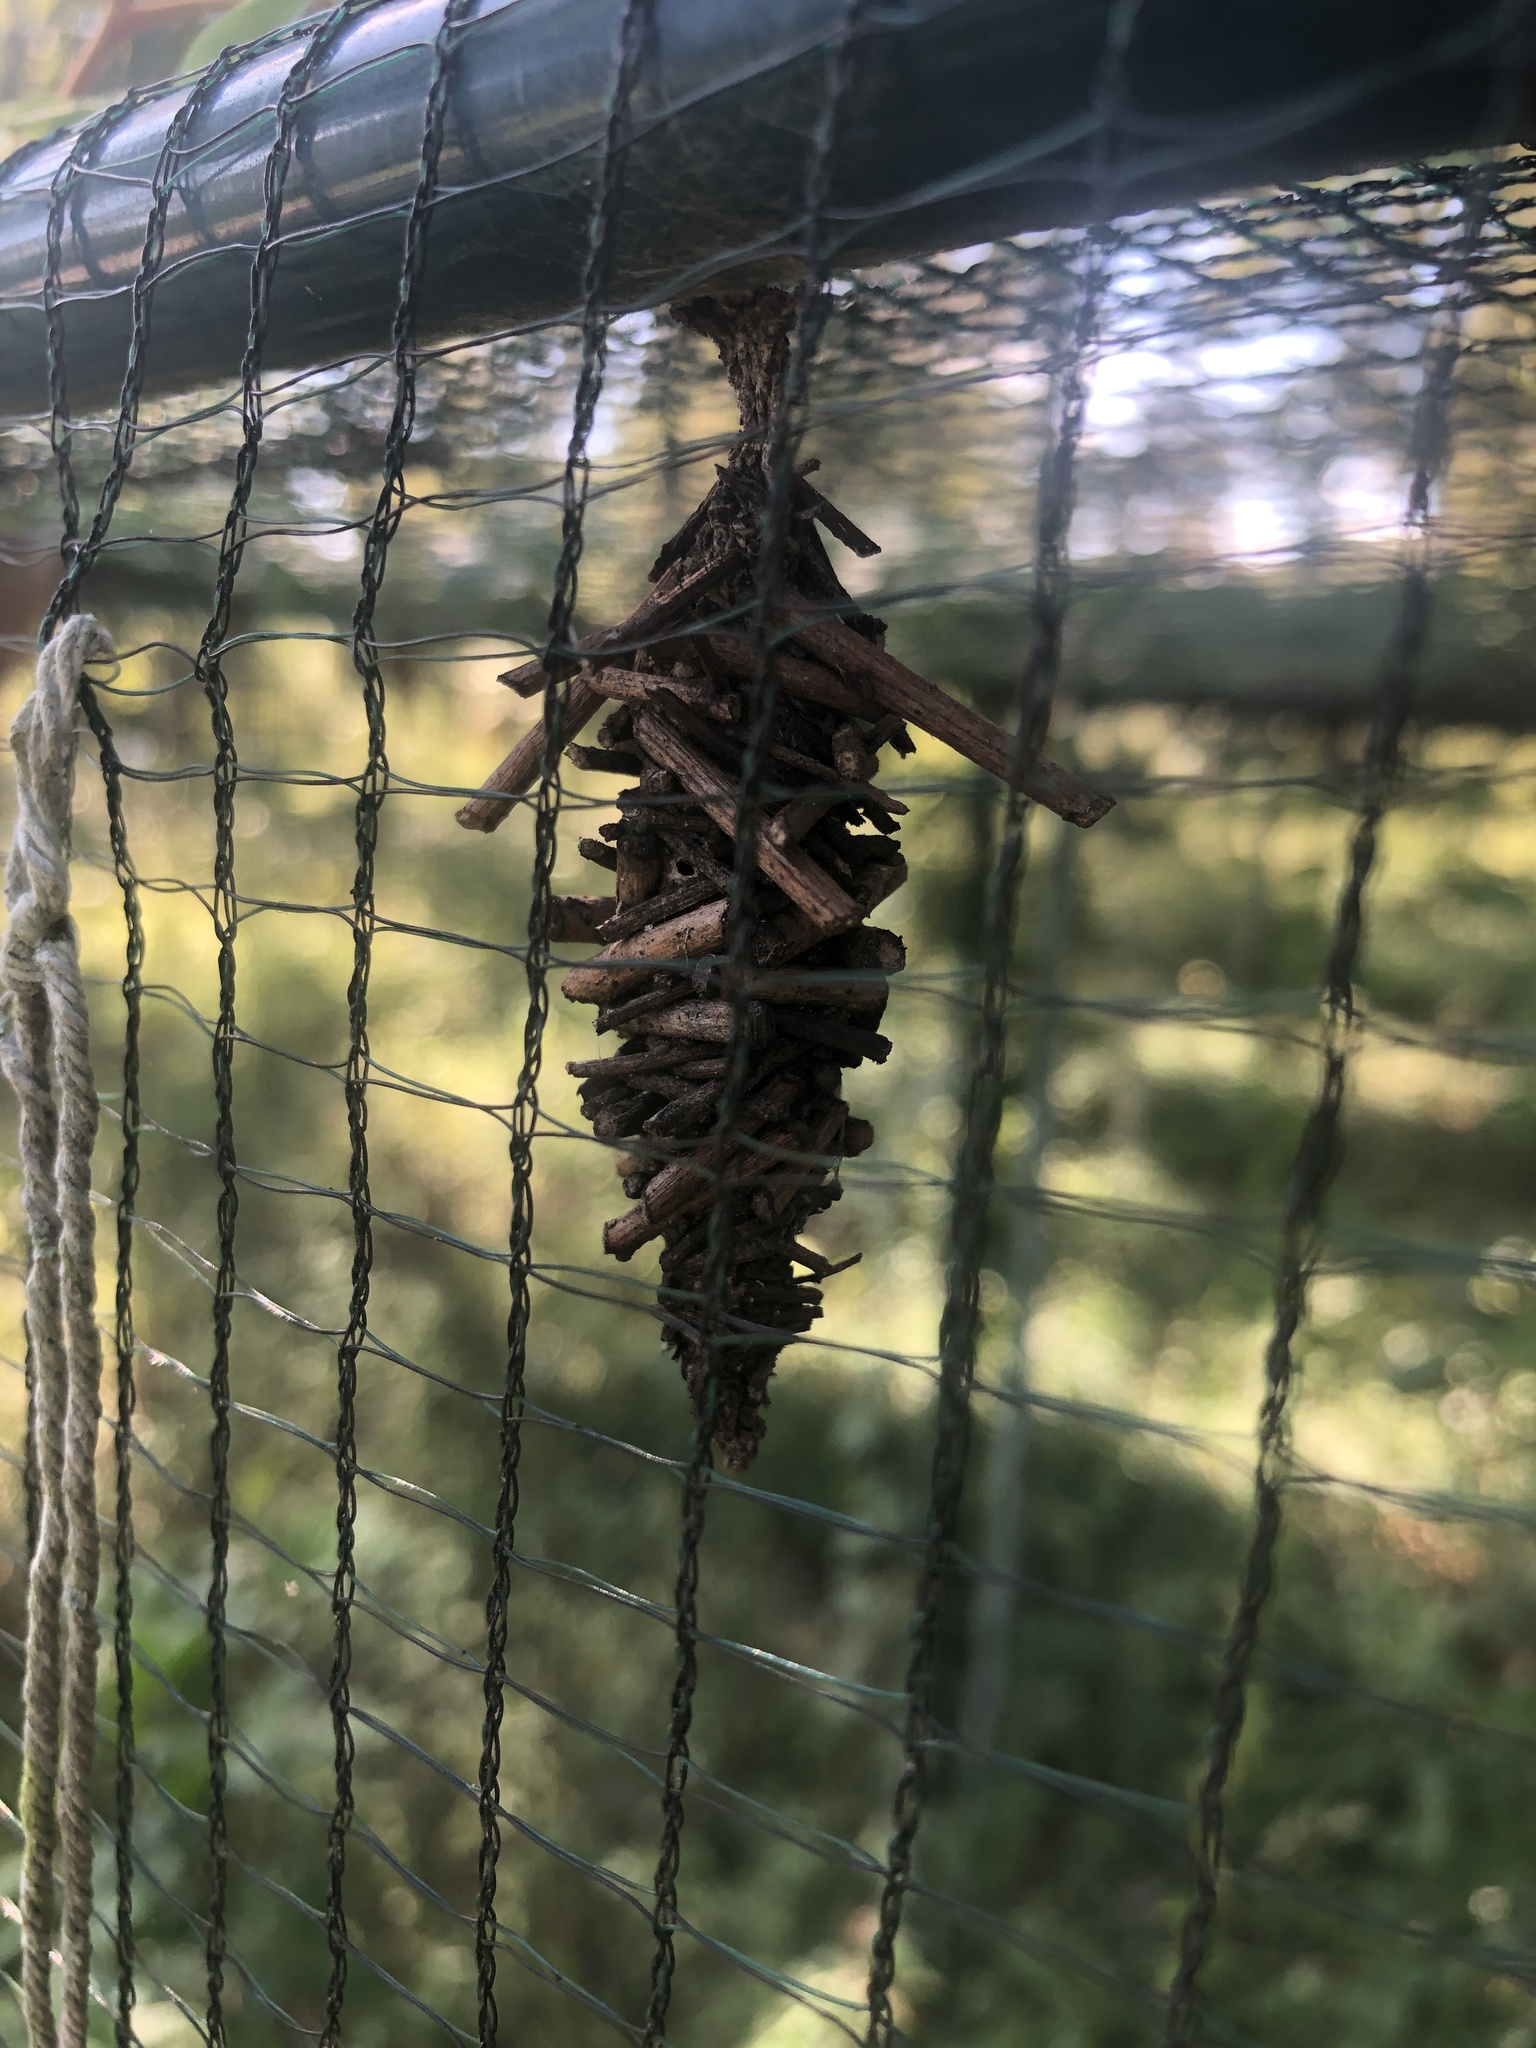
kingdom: Animalia
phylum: Arthropoda
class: Insecta
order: Lepidoptera
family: Psychidae
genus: Oiketicus
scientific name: Oiketicus
